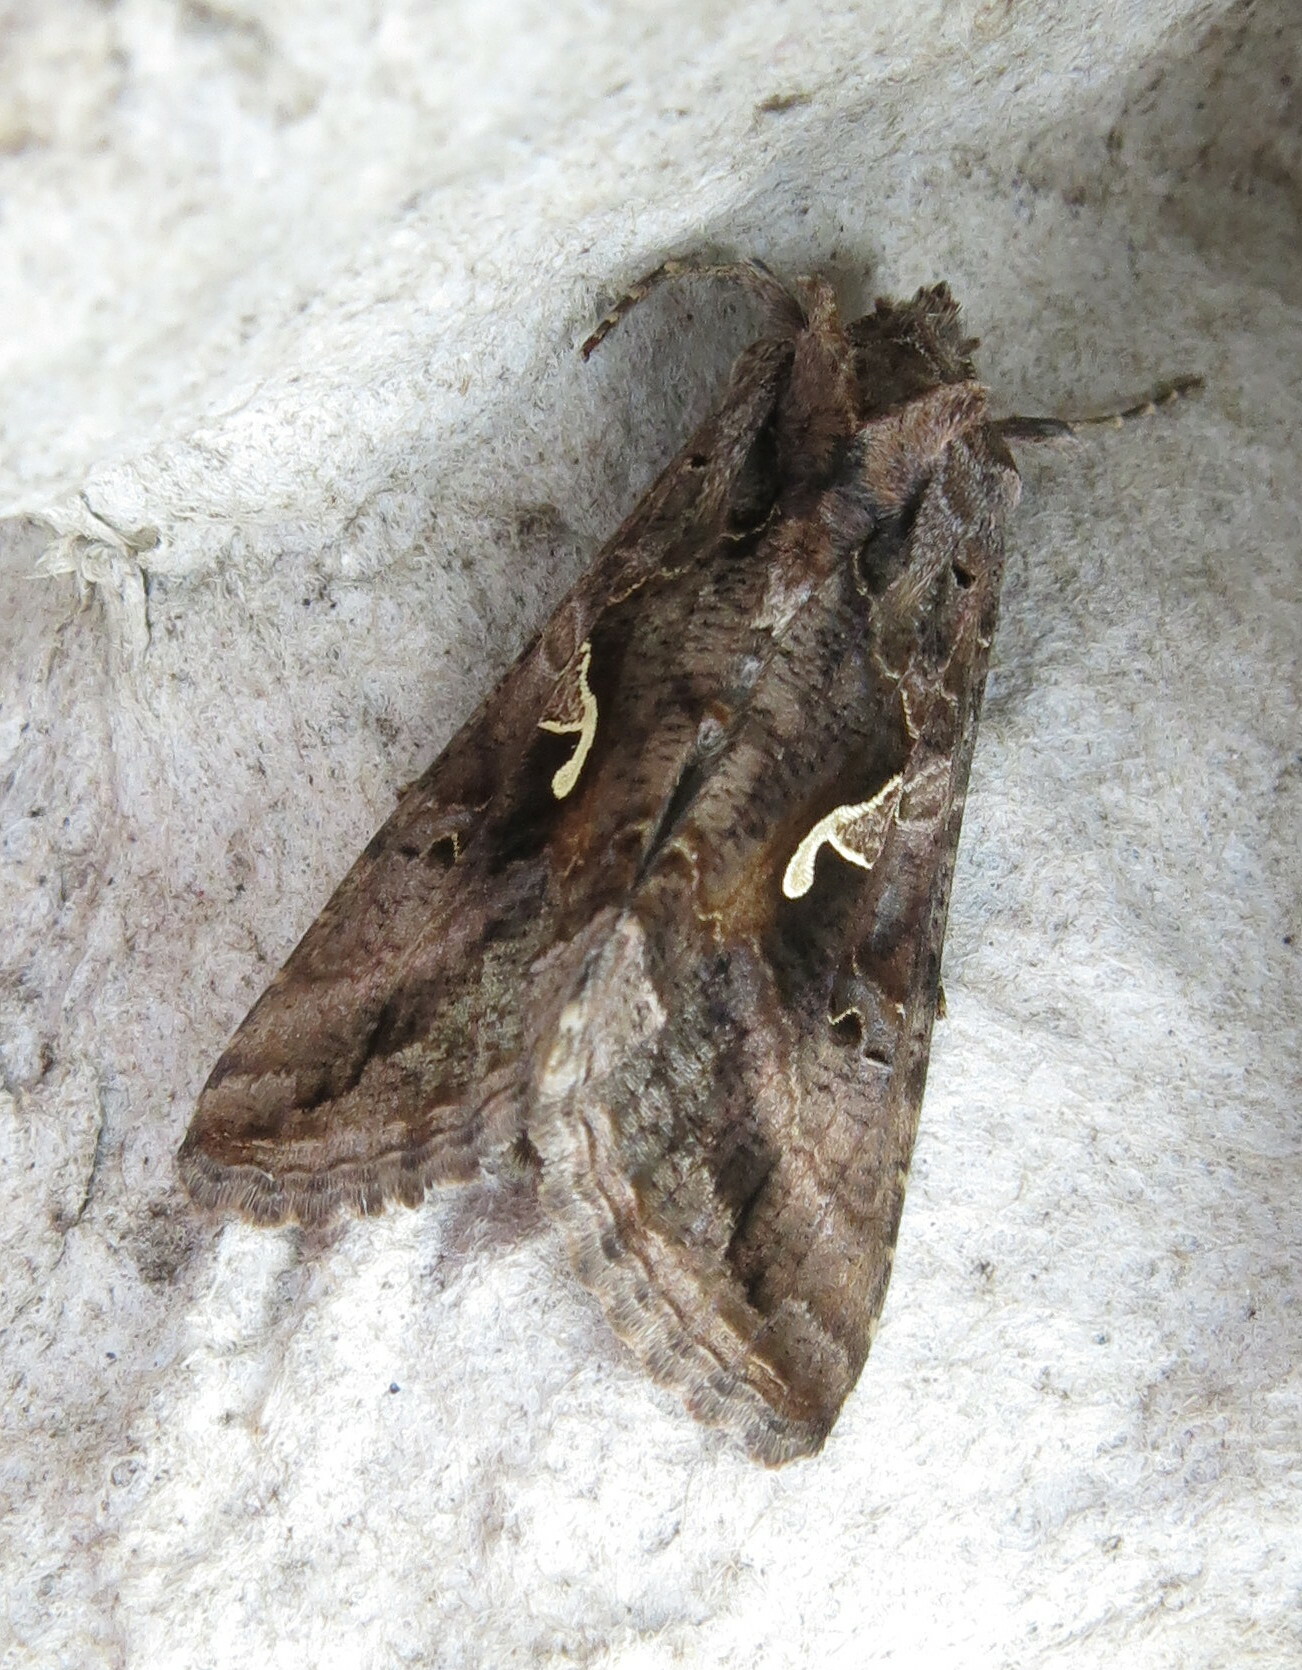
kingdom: Animalia
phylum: Arthropoda
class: Insecta
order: Lepidoptera
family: Noctuidae
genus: Autographa
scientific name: Autographa gamma
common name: Silver y
